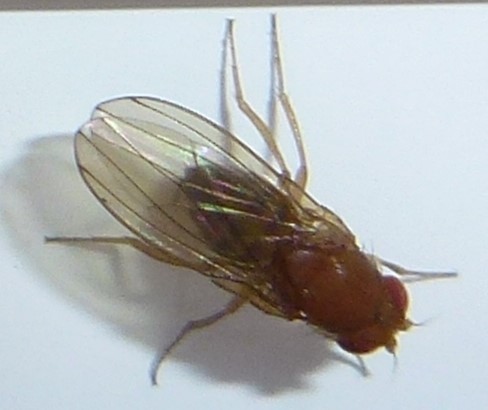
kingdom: Animalia
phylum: Arthropoda
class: Insecta
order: Diptera
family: Drosophilidae
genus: Drosophila
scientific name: Drosophila
